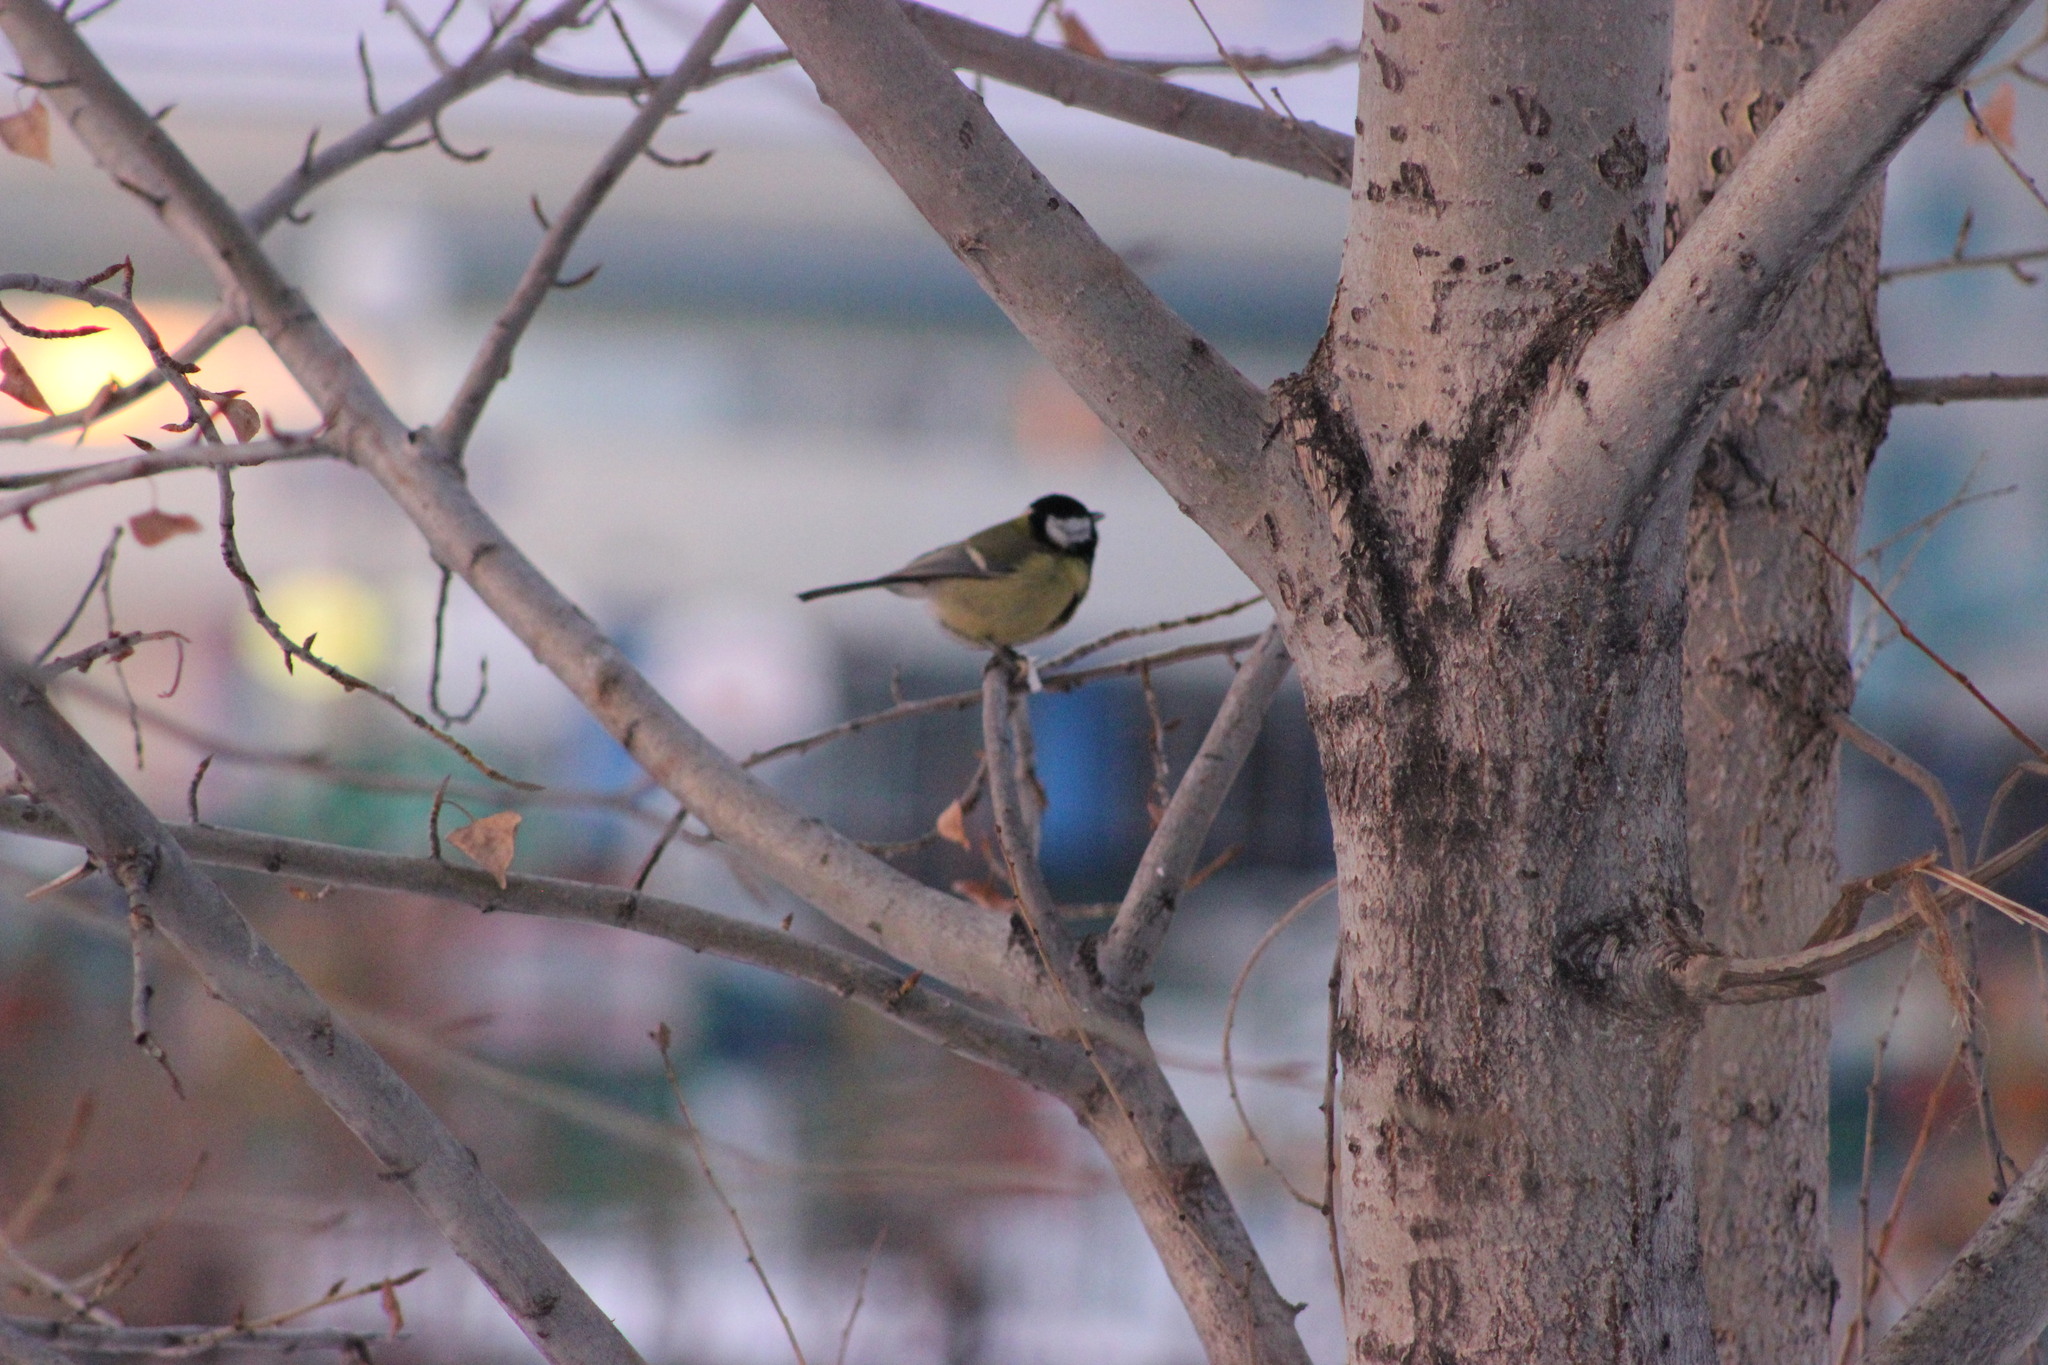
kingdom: Animalia
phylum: Chordata
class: Aves
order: Passeriformes
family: Paridae
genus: Parus
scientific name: Parus major
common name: Great tit
